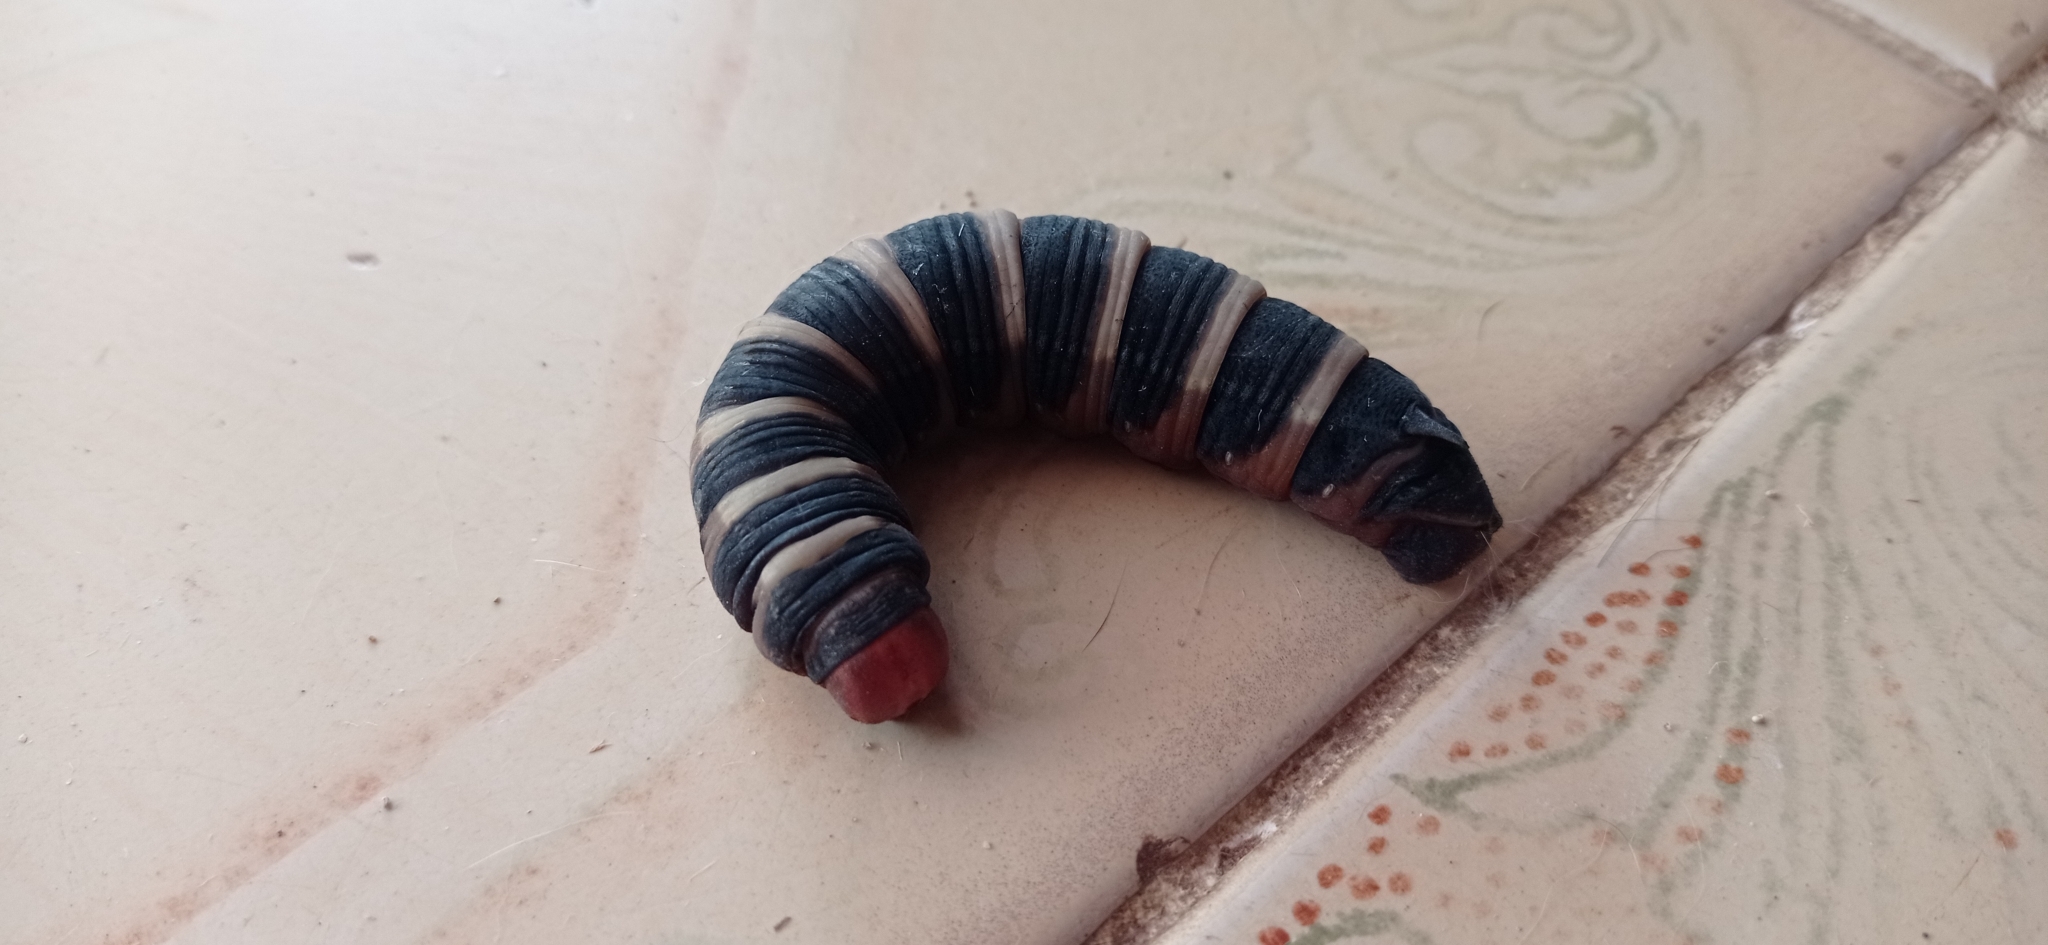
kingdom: Animalia
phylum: Arthropoda
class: Insecta
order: Lepidoptera
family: Sphingidae
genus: Pachylia
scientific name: Pachylia syces
